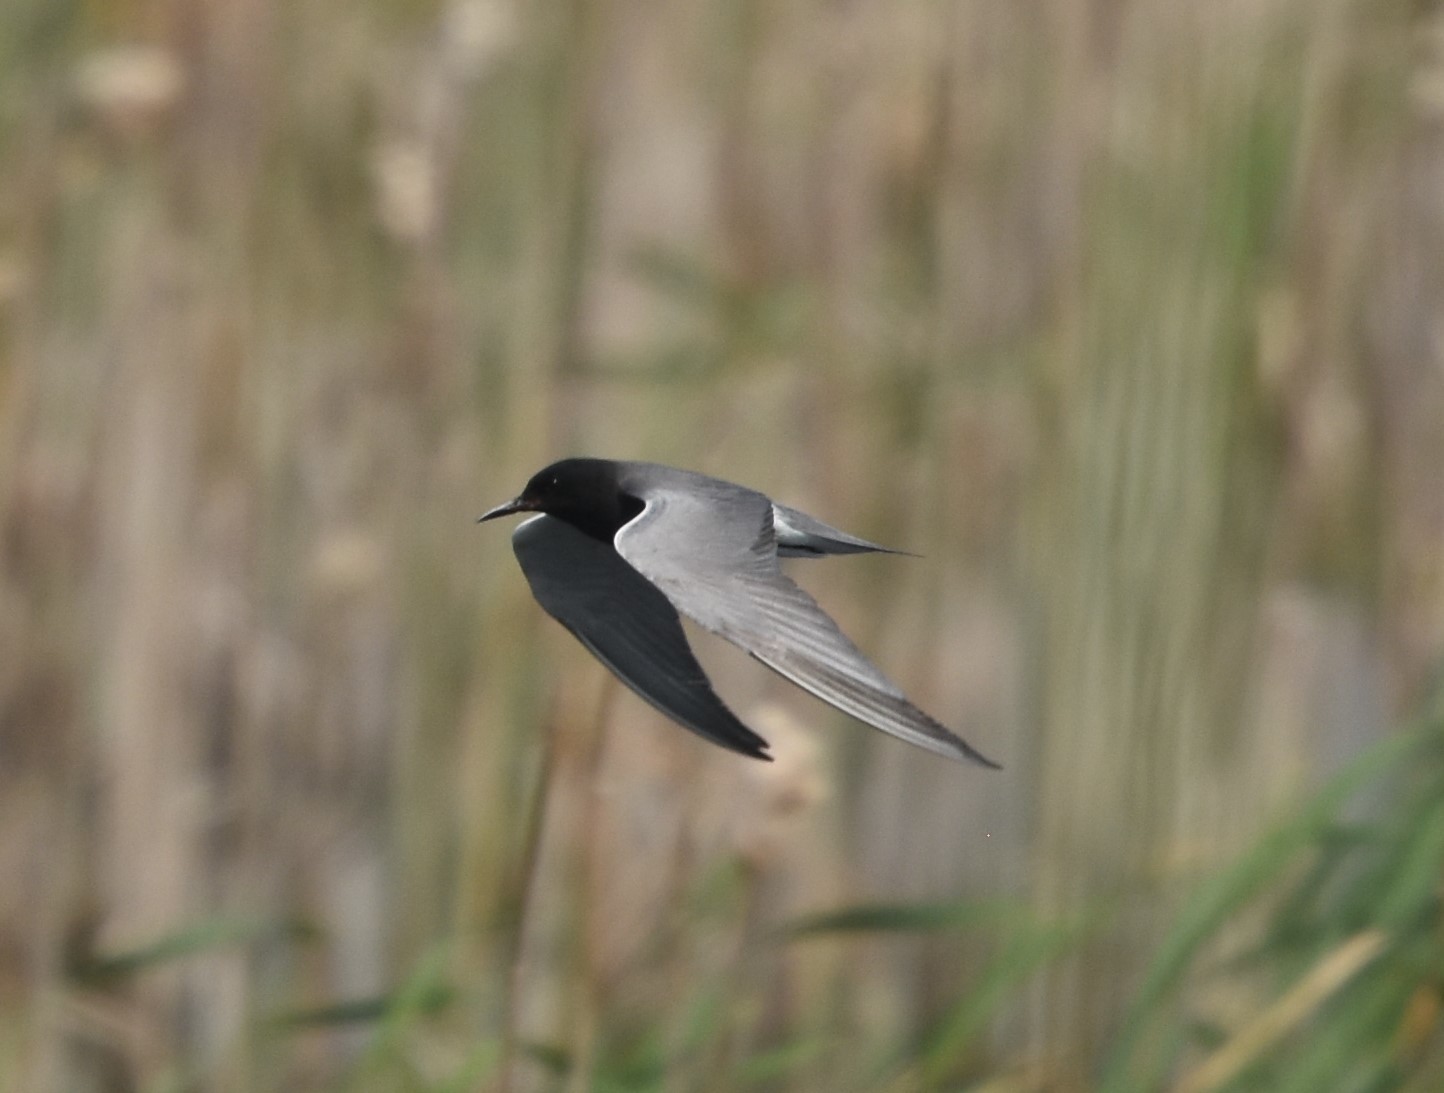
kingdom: Animalia
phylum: Chordata
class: Aves
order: Charadriiformes
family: Laridae
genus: Chlidonias
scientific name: Chlidonias niger
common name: Black tern
